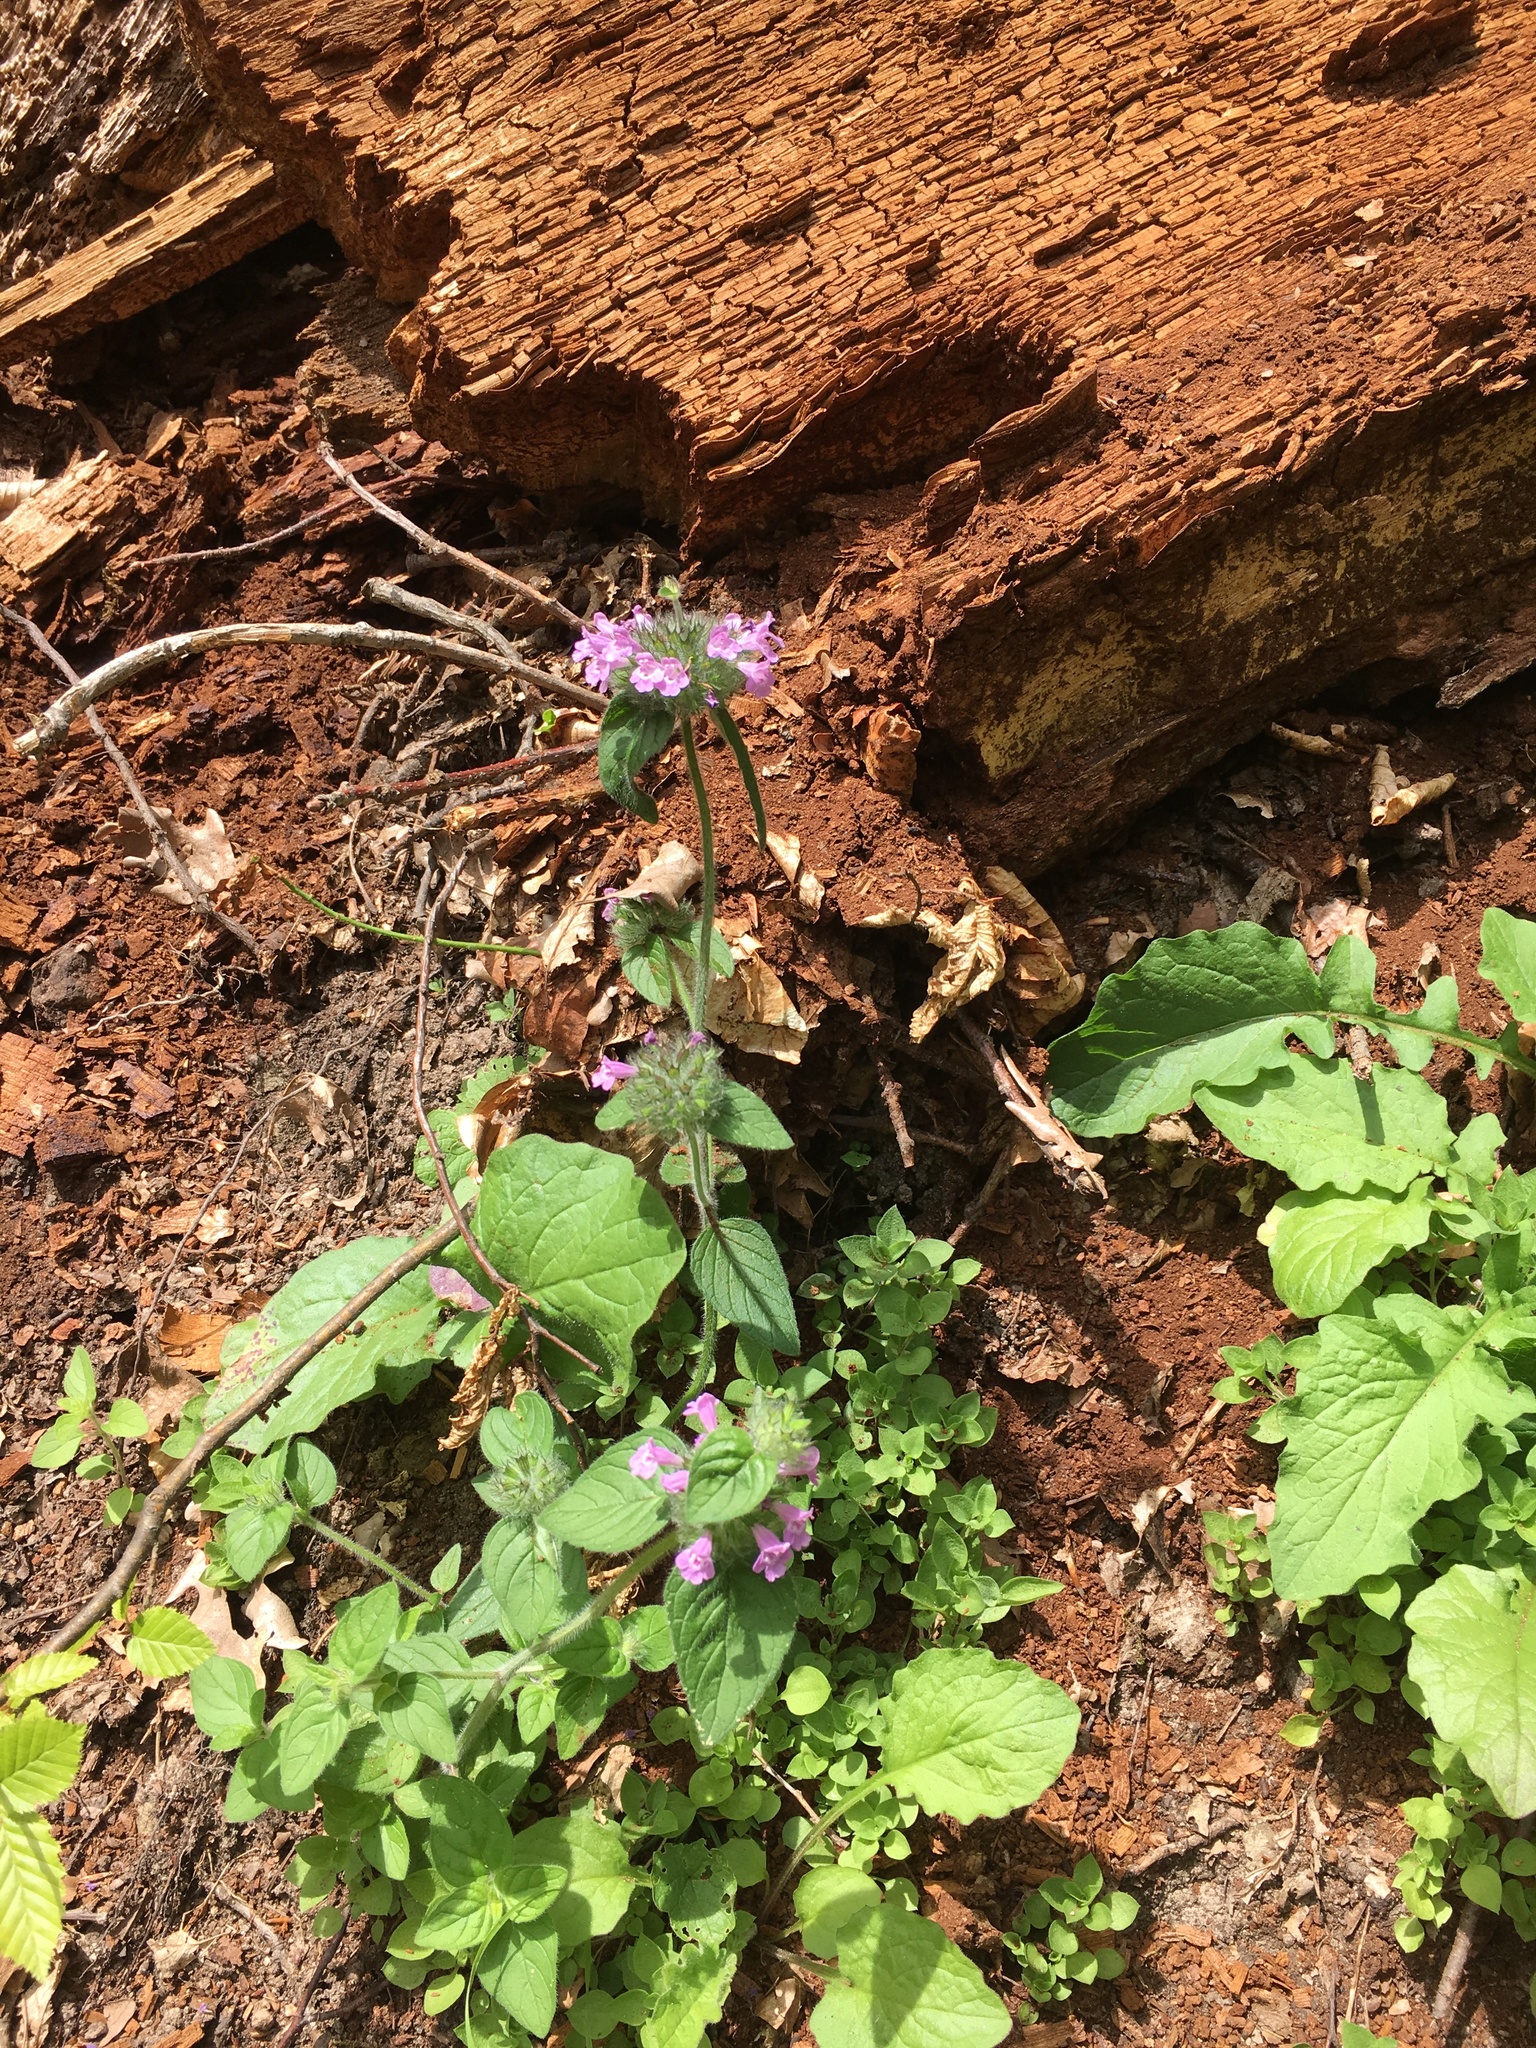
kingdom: Plantae
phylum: Tracheophyta
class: Magnoliopsida
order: Lamiales
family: Lamiaceae
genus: Clinopodium
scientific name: Clinopodium vulgare
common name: Wild basil
